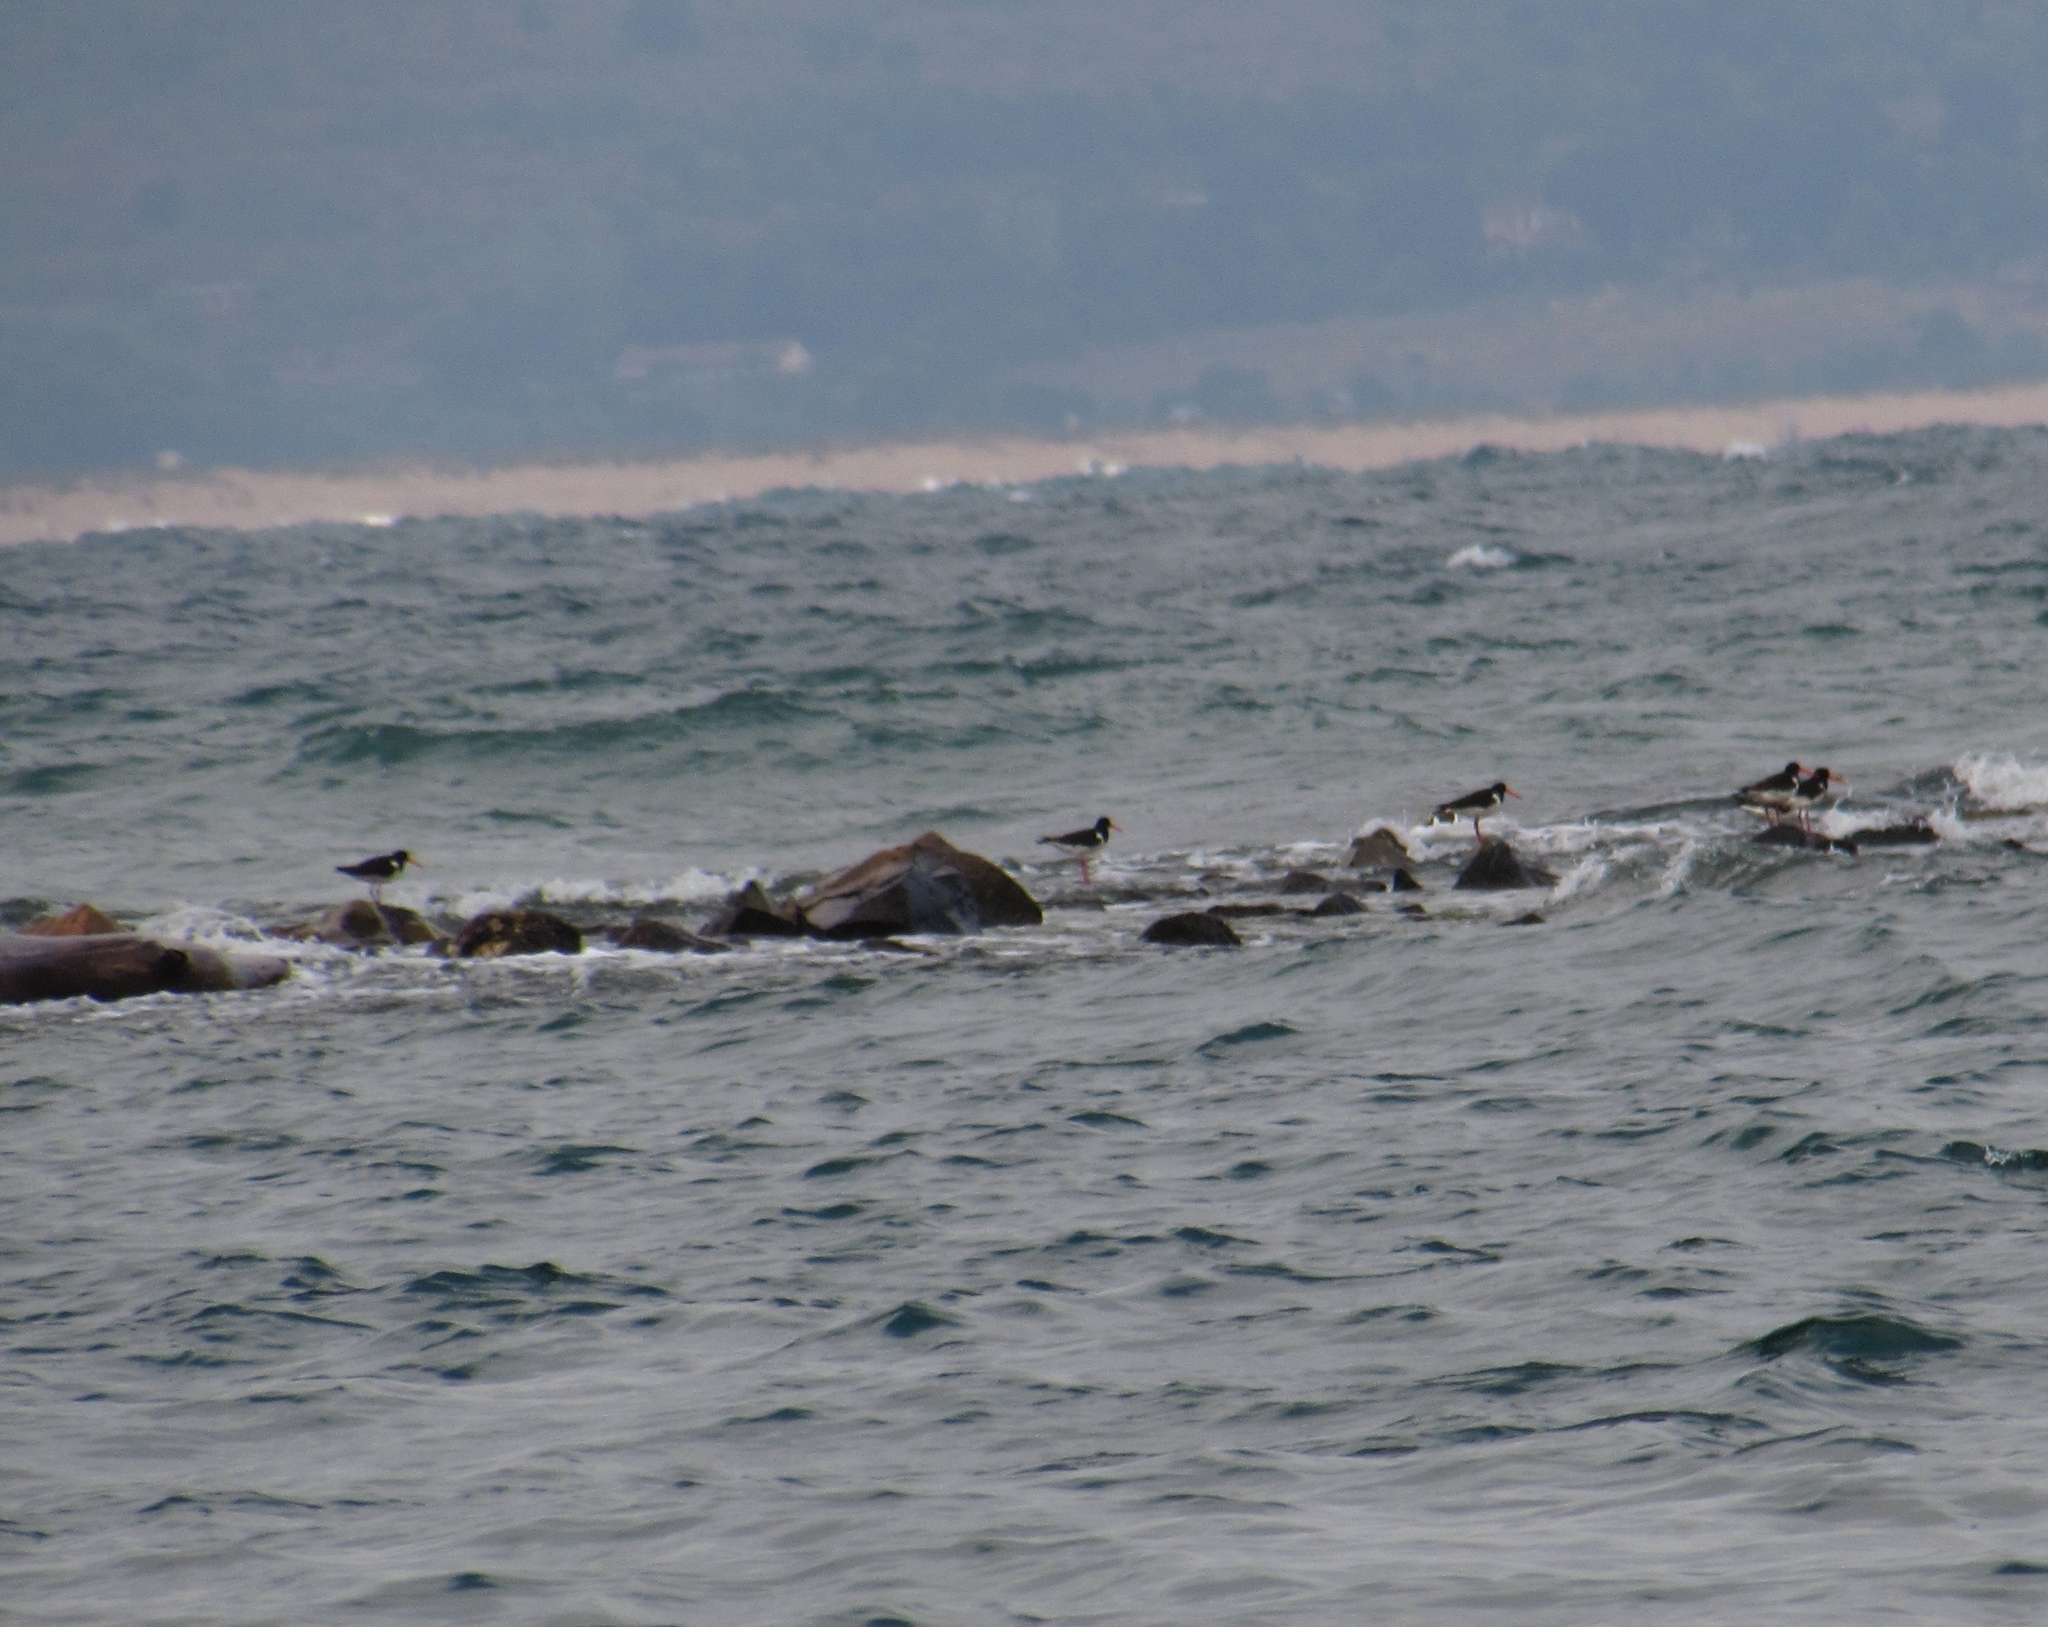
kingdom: Animalia
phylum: Chordata
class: Aves
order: Charadriiformes
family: Haematopodidae
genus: Haematopus
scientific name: Haematopus ostralegus
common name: Eurasian oystercatcher
